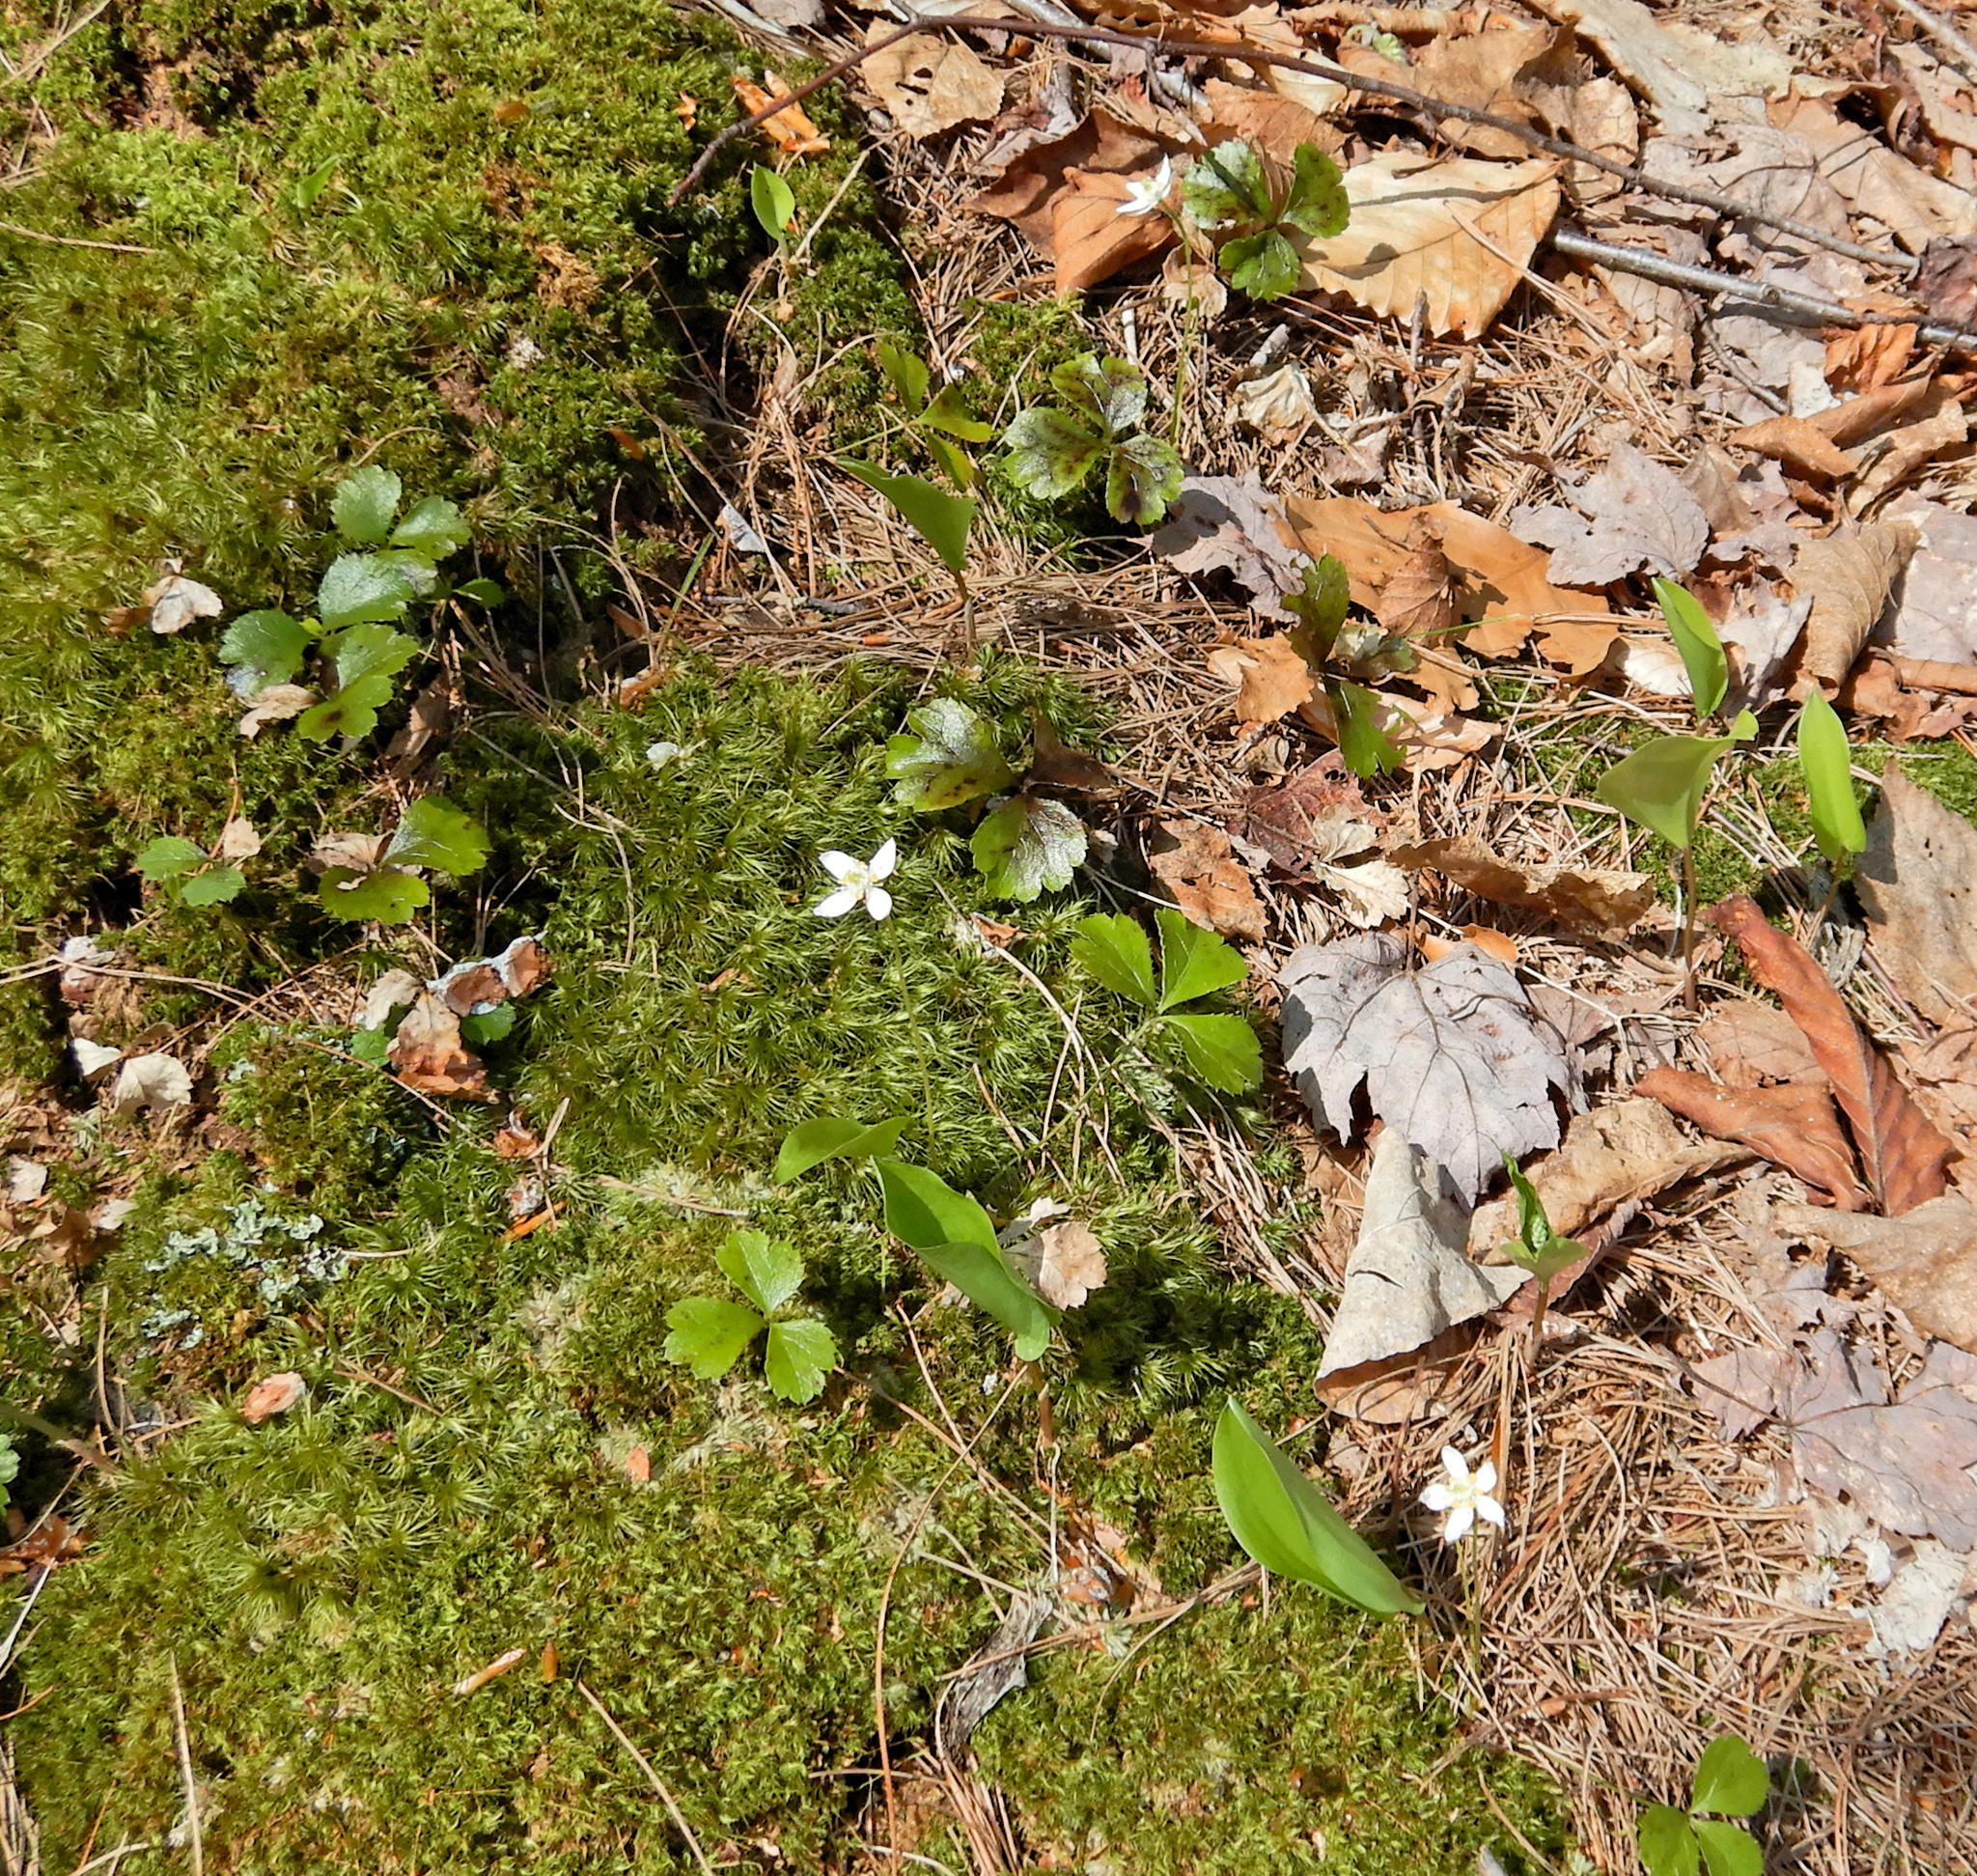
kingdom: Plantae
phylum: Tracheophyta
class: Magnoliopsida
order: Ranunculales
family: Ranunculaceae
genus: Coptis
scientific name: Coptis trifolia
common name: Canker-root
